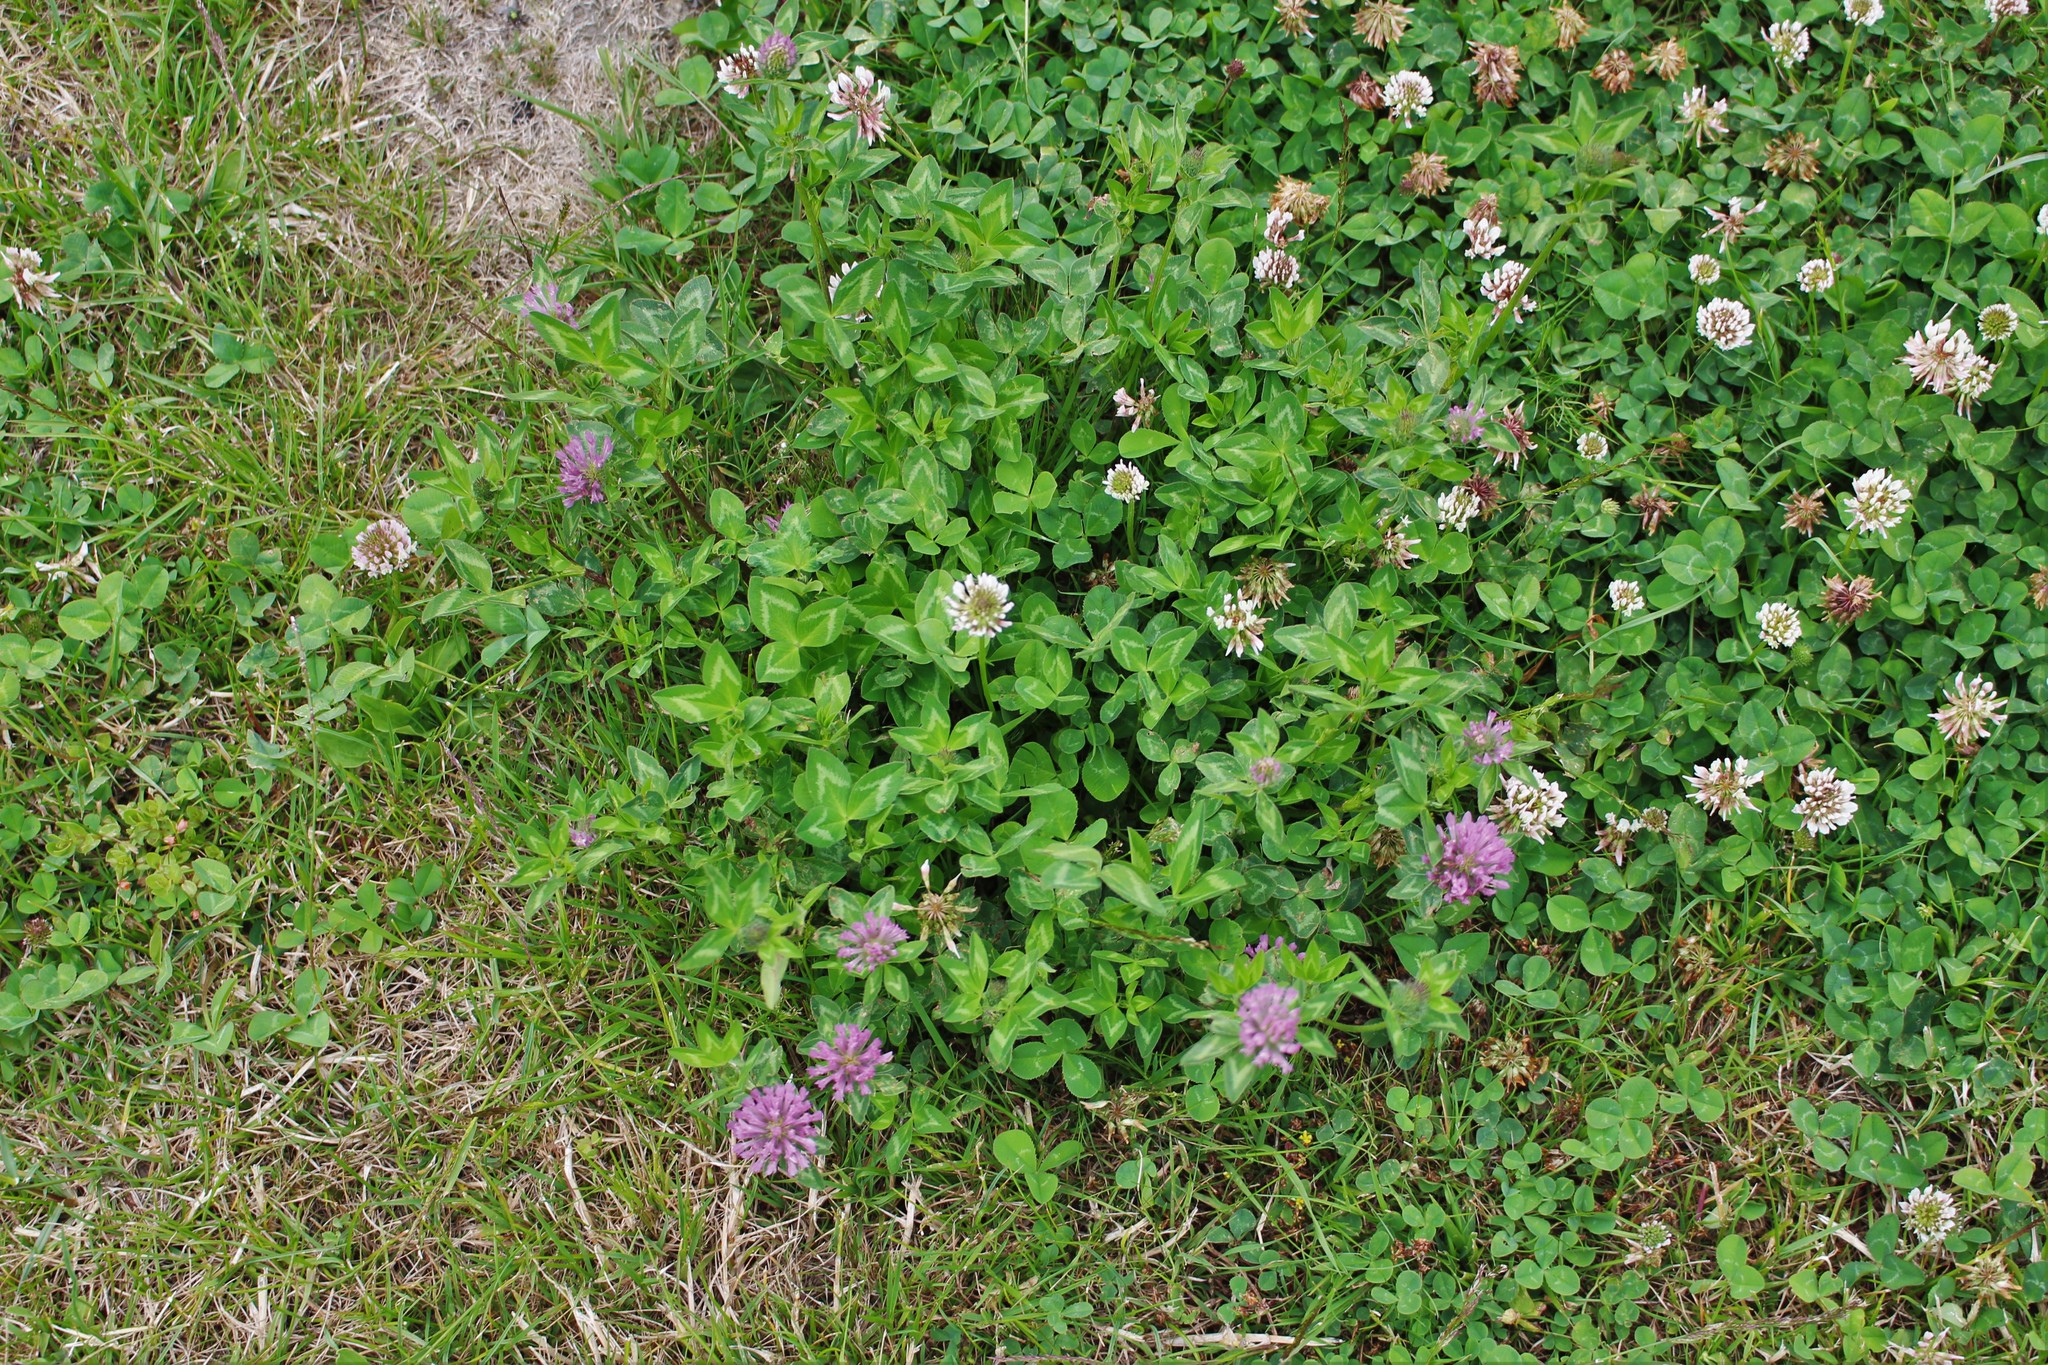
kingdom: Plantae
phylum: Tracheophyta
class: Magnoliopsida
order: Fabales
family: Fabaceae
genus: Trifolium
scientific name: Trifolium pratense
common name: Red clover
